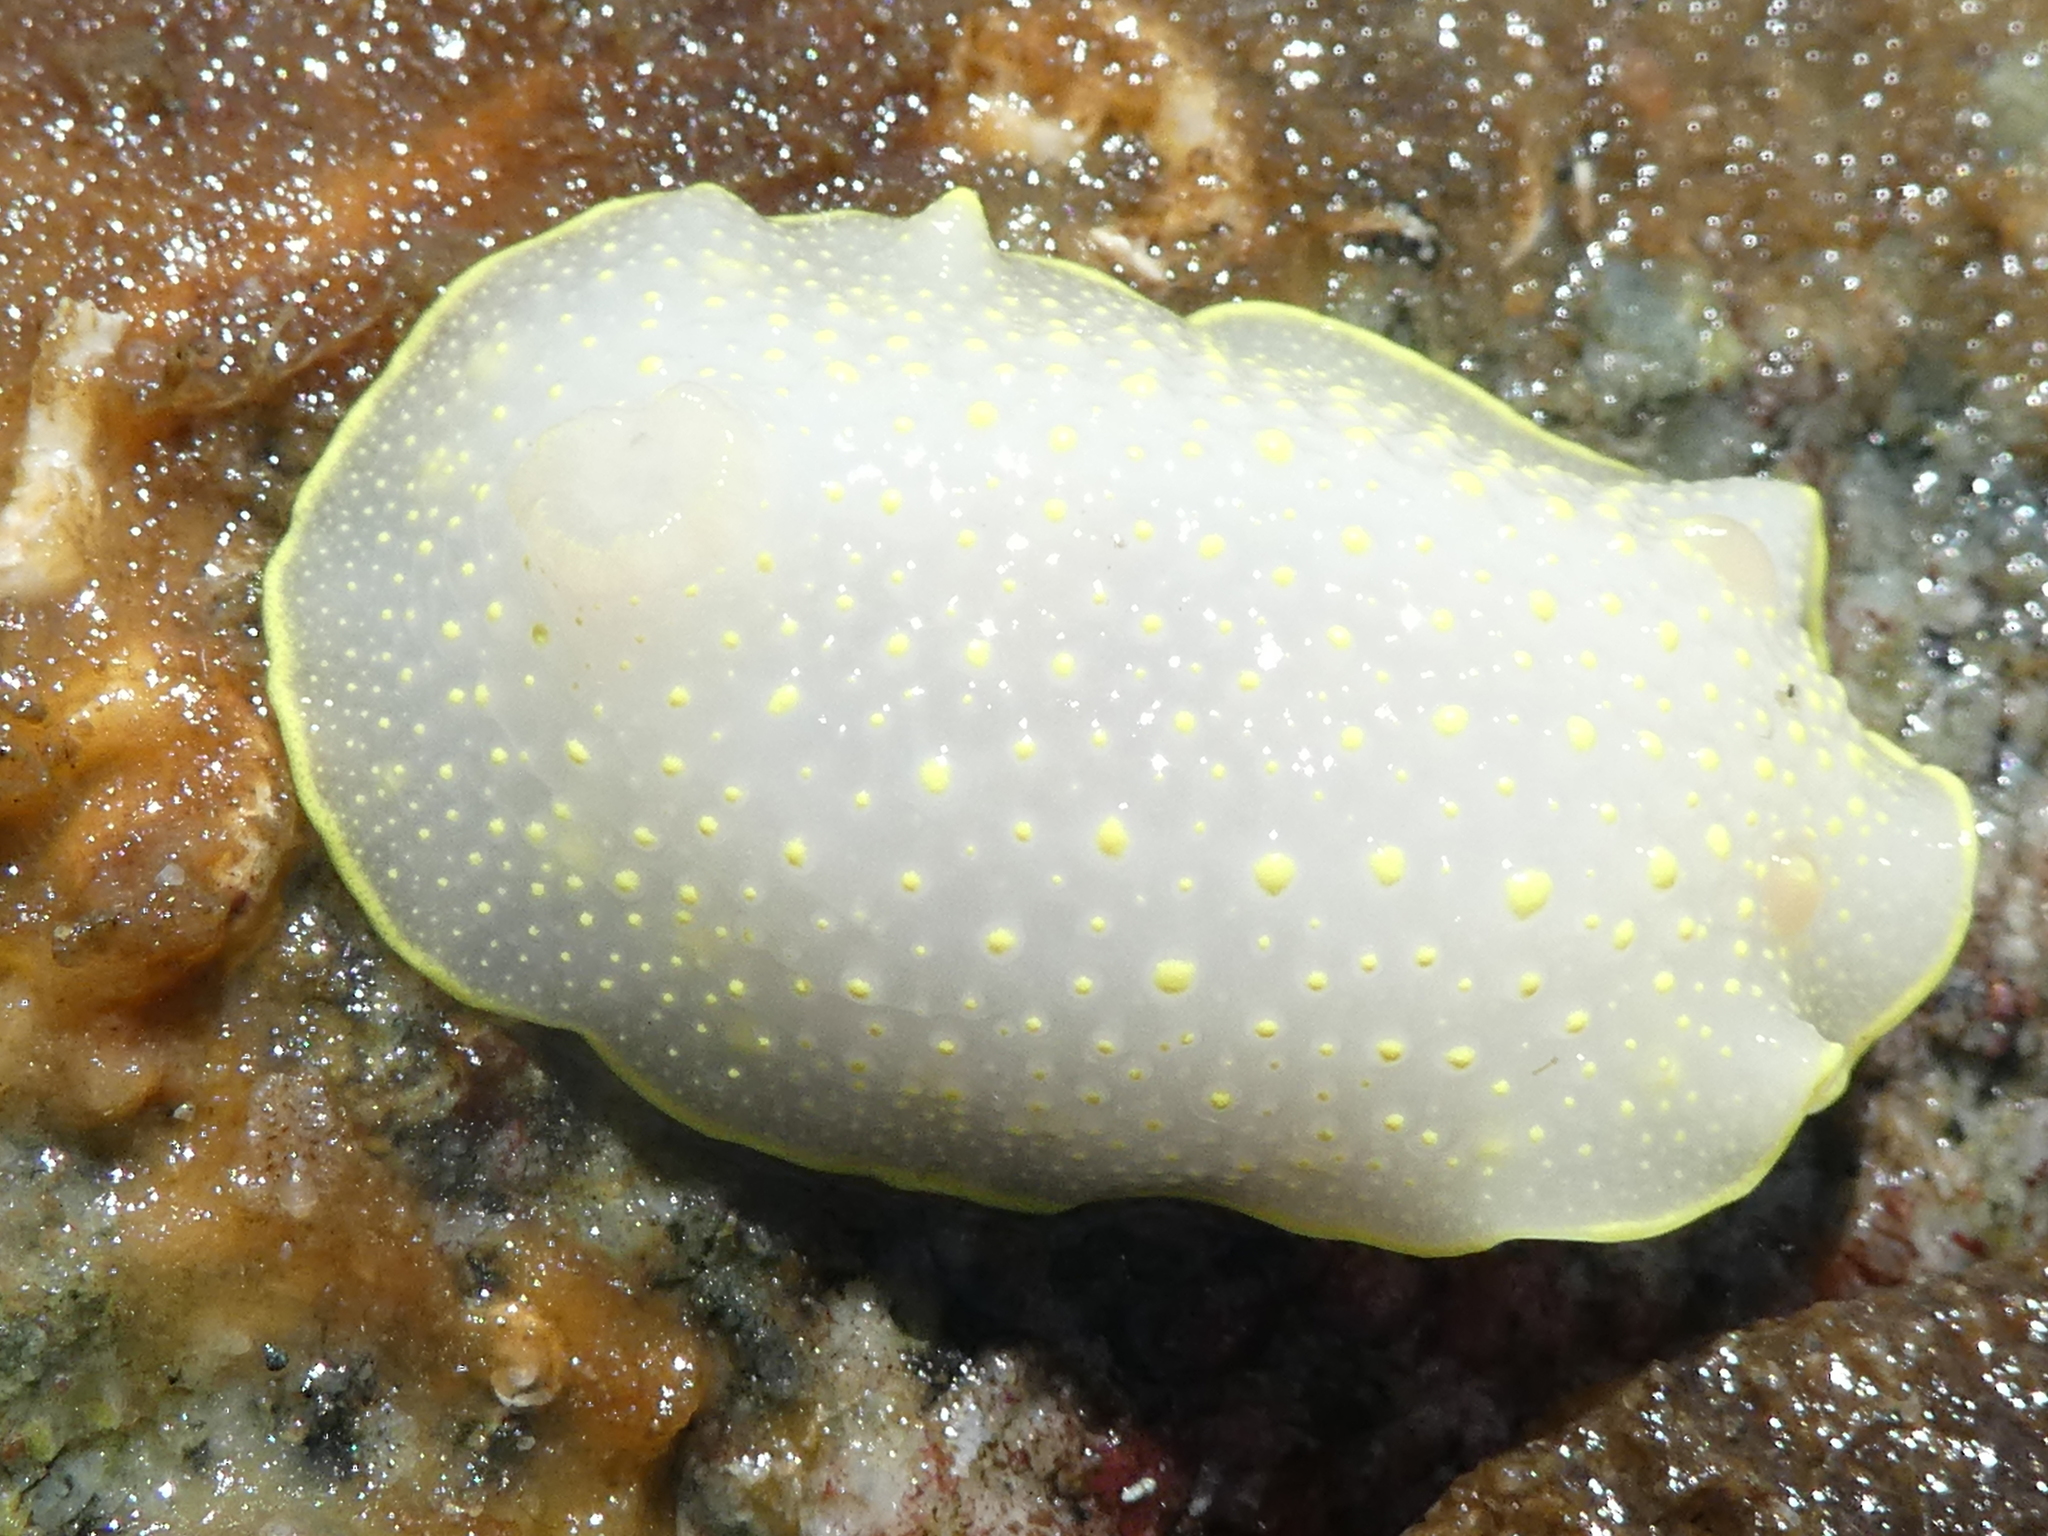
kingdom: Animalia
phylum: Mollusca
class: Gastropoda
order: Nudibranchia
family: Cadlinidae
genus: Cadlina
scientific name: Cadlina luteomarginata
